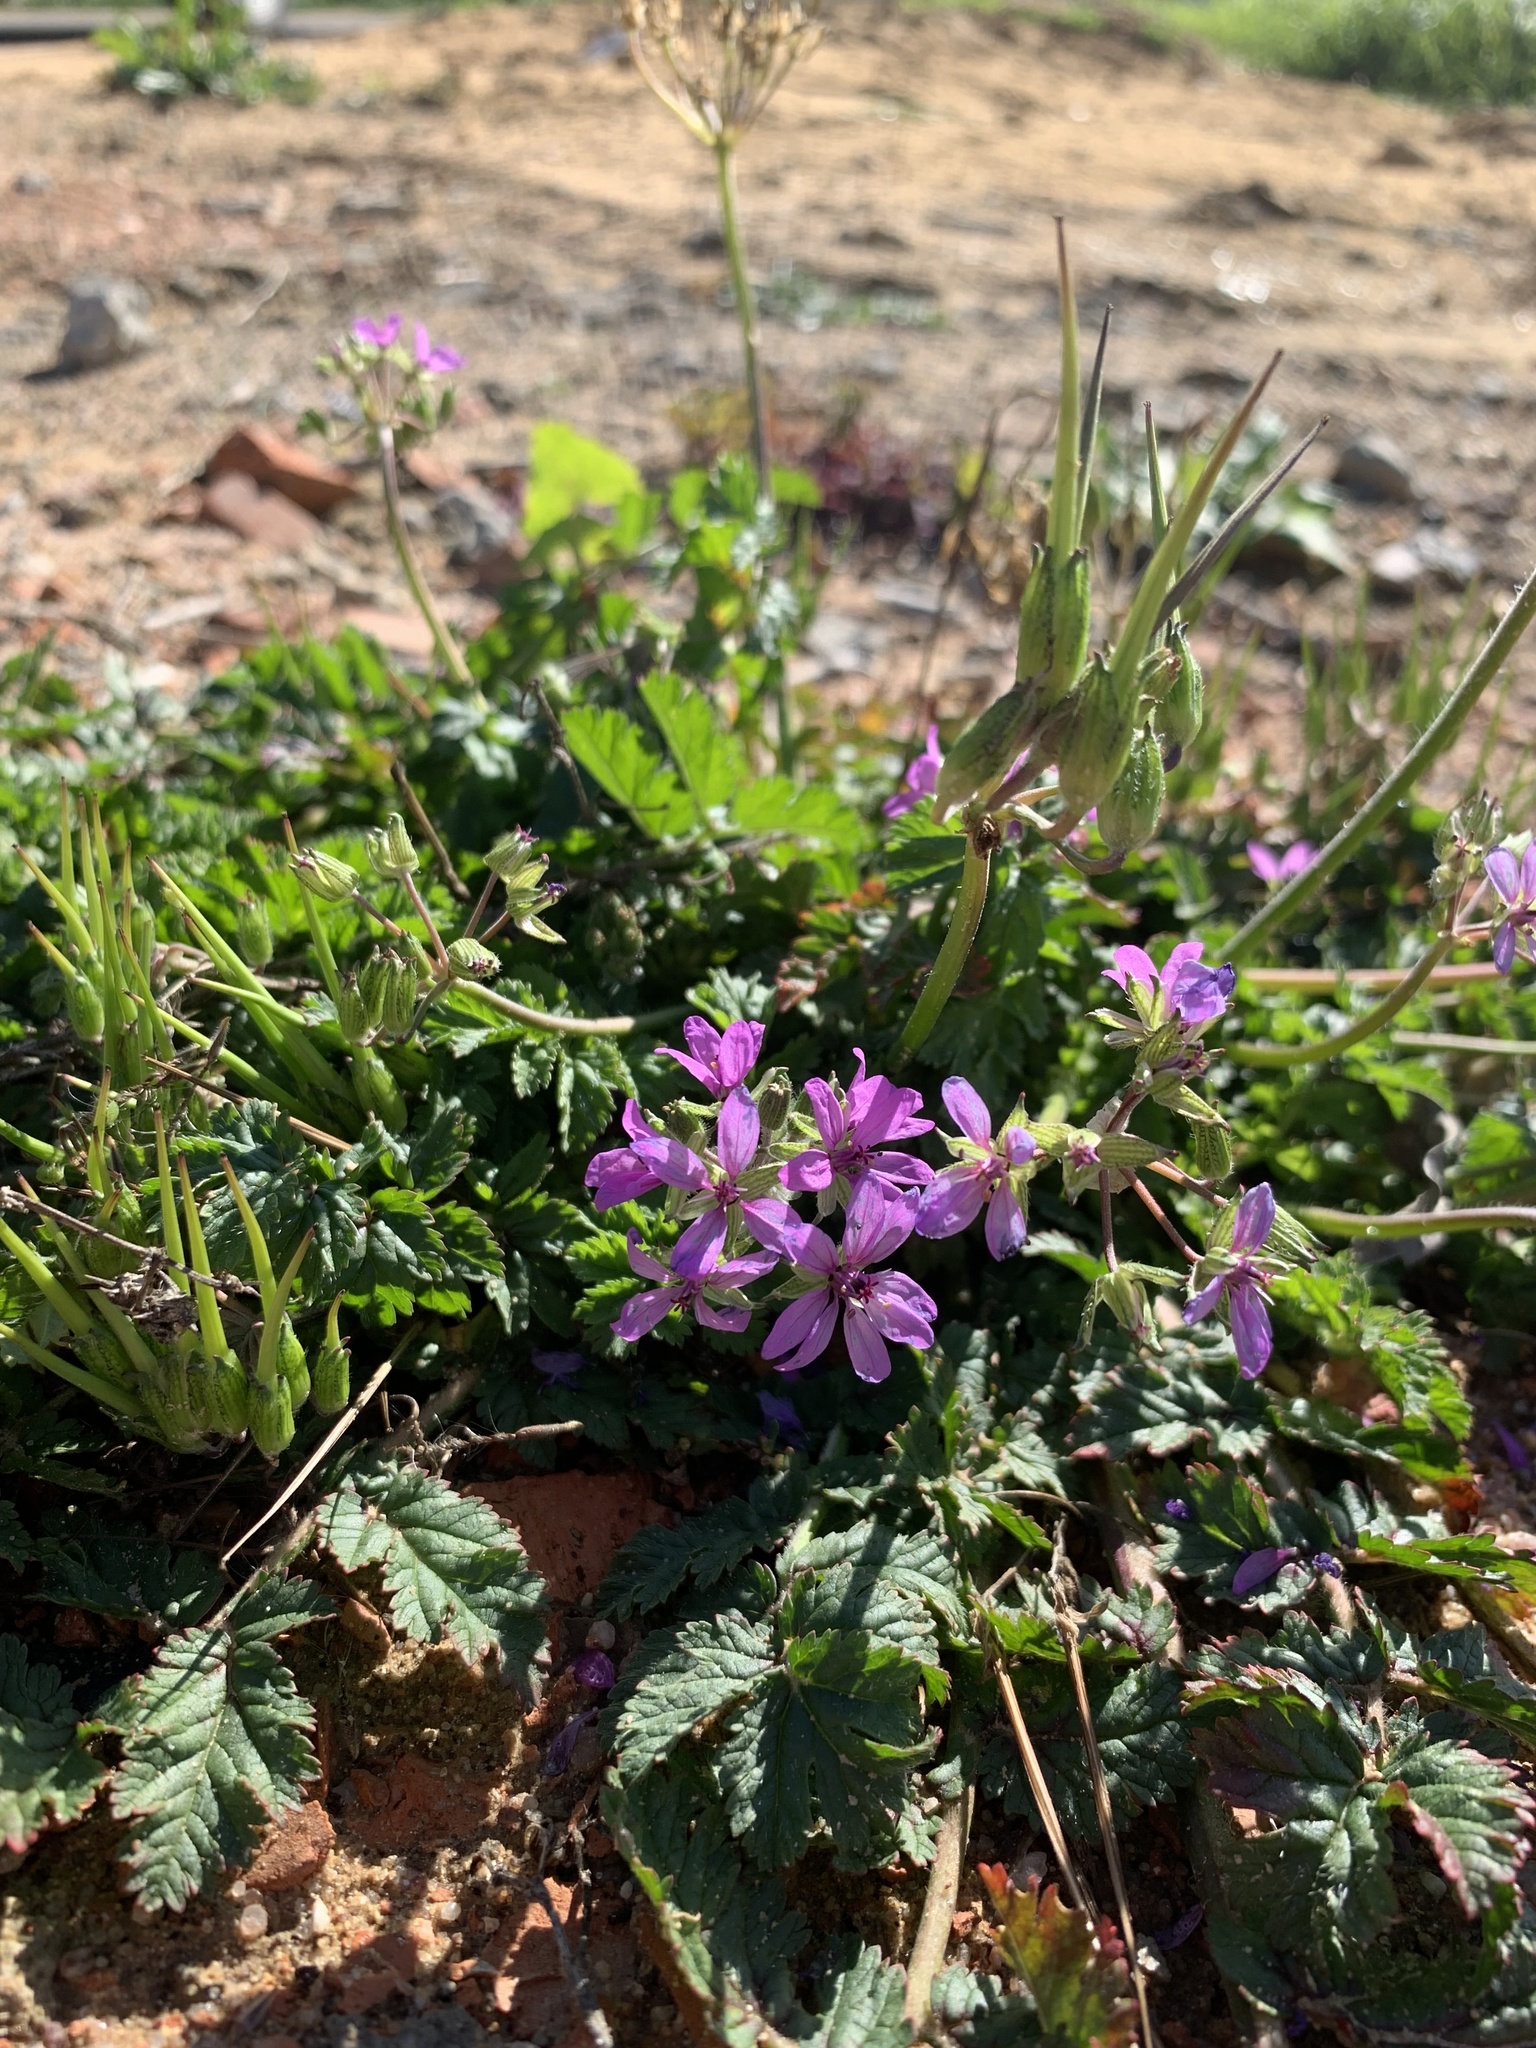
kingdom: Plantae
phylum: Tracheophyta
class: Magnoliopsida
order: Geraniales
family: Geraniaceae
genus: Erodium
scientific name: Erodium moschatum
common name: Musk stork's-bill
